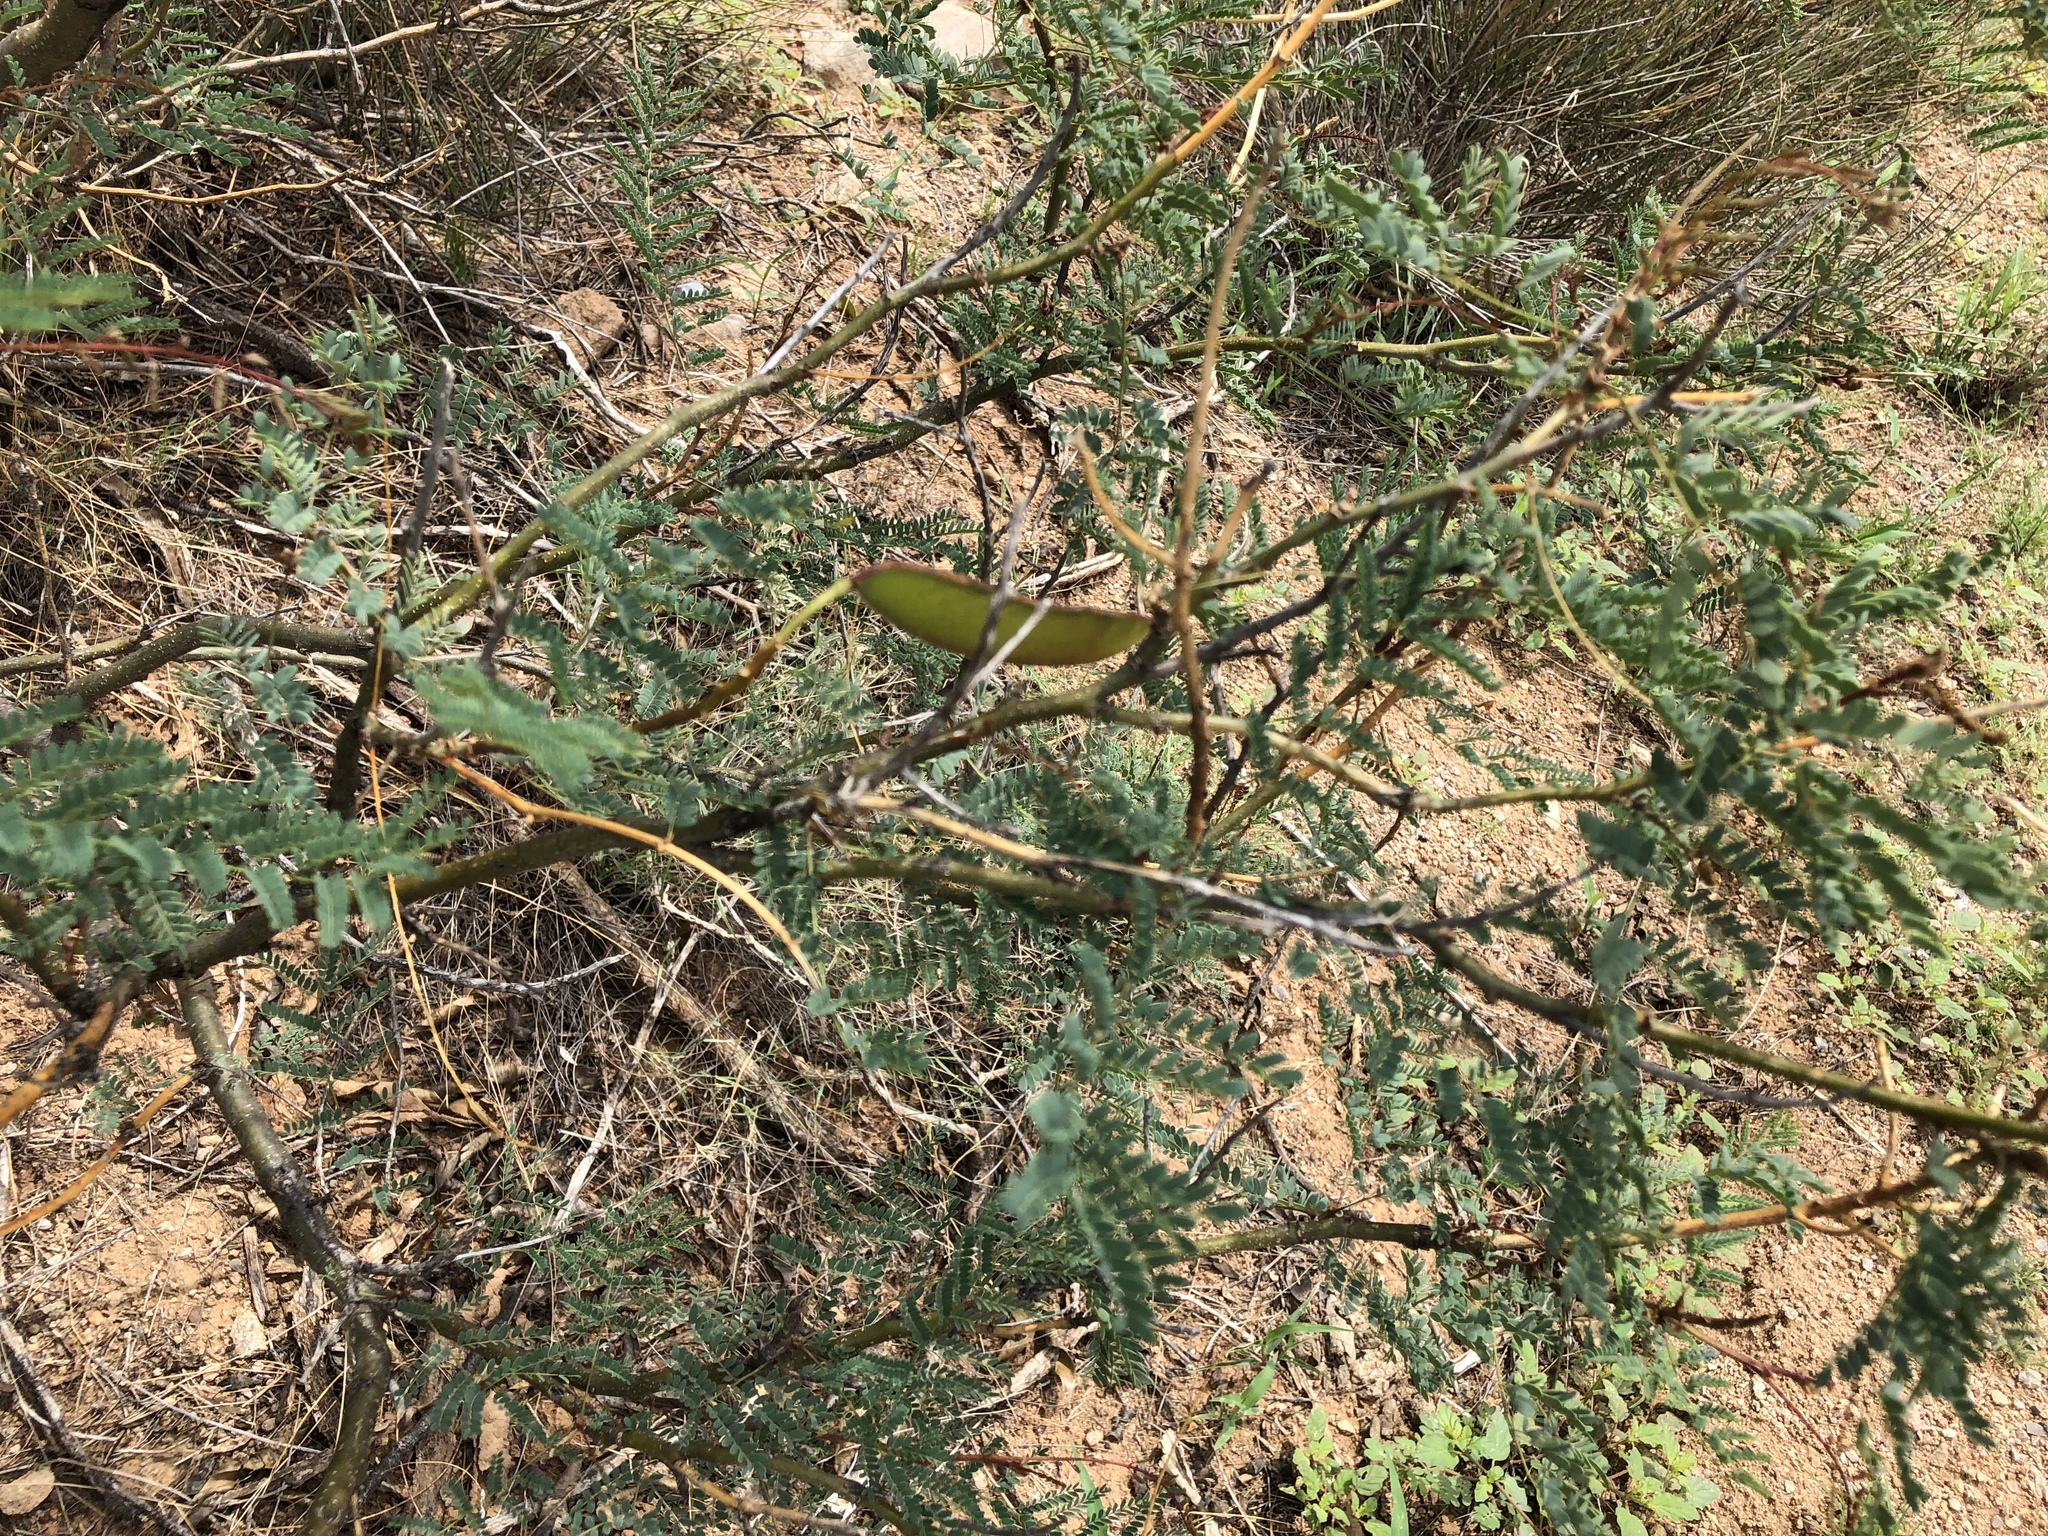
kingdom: Plantae
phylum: Tracheophyta
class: Magnoliopsida
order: Fabales
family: Fabaceae
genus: Prosopis
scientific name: Prosopis glandulosa
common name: Honey mesquite
